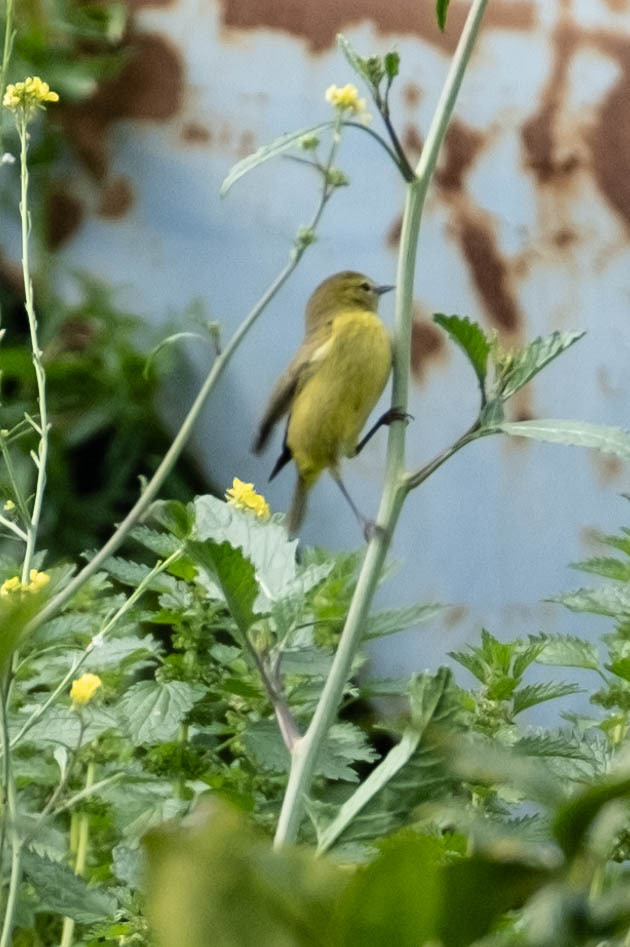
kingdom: Animalia
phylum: Chordata
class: Aves
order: Passeriformes
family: Parulidae
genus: Leiothlypis
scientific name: Leiothlypis celata
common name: Orange-crowned warbler
